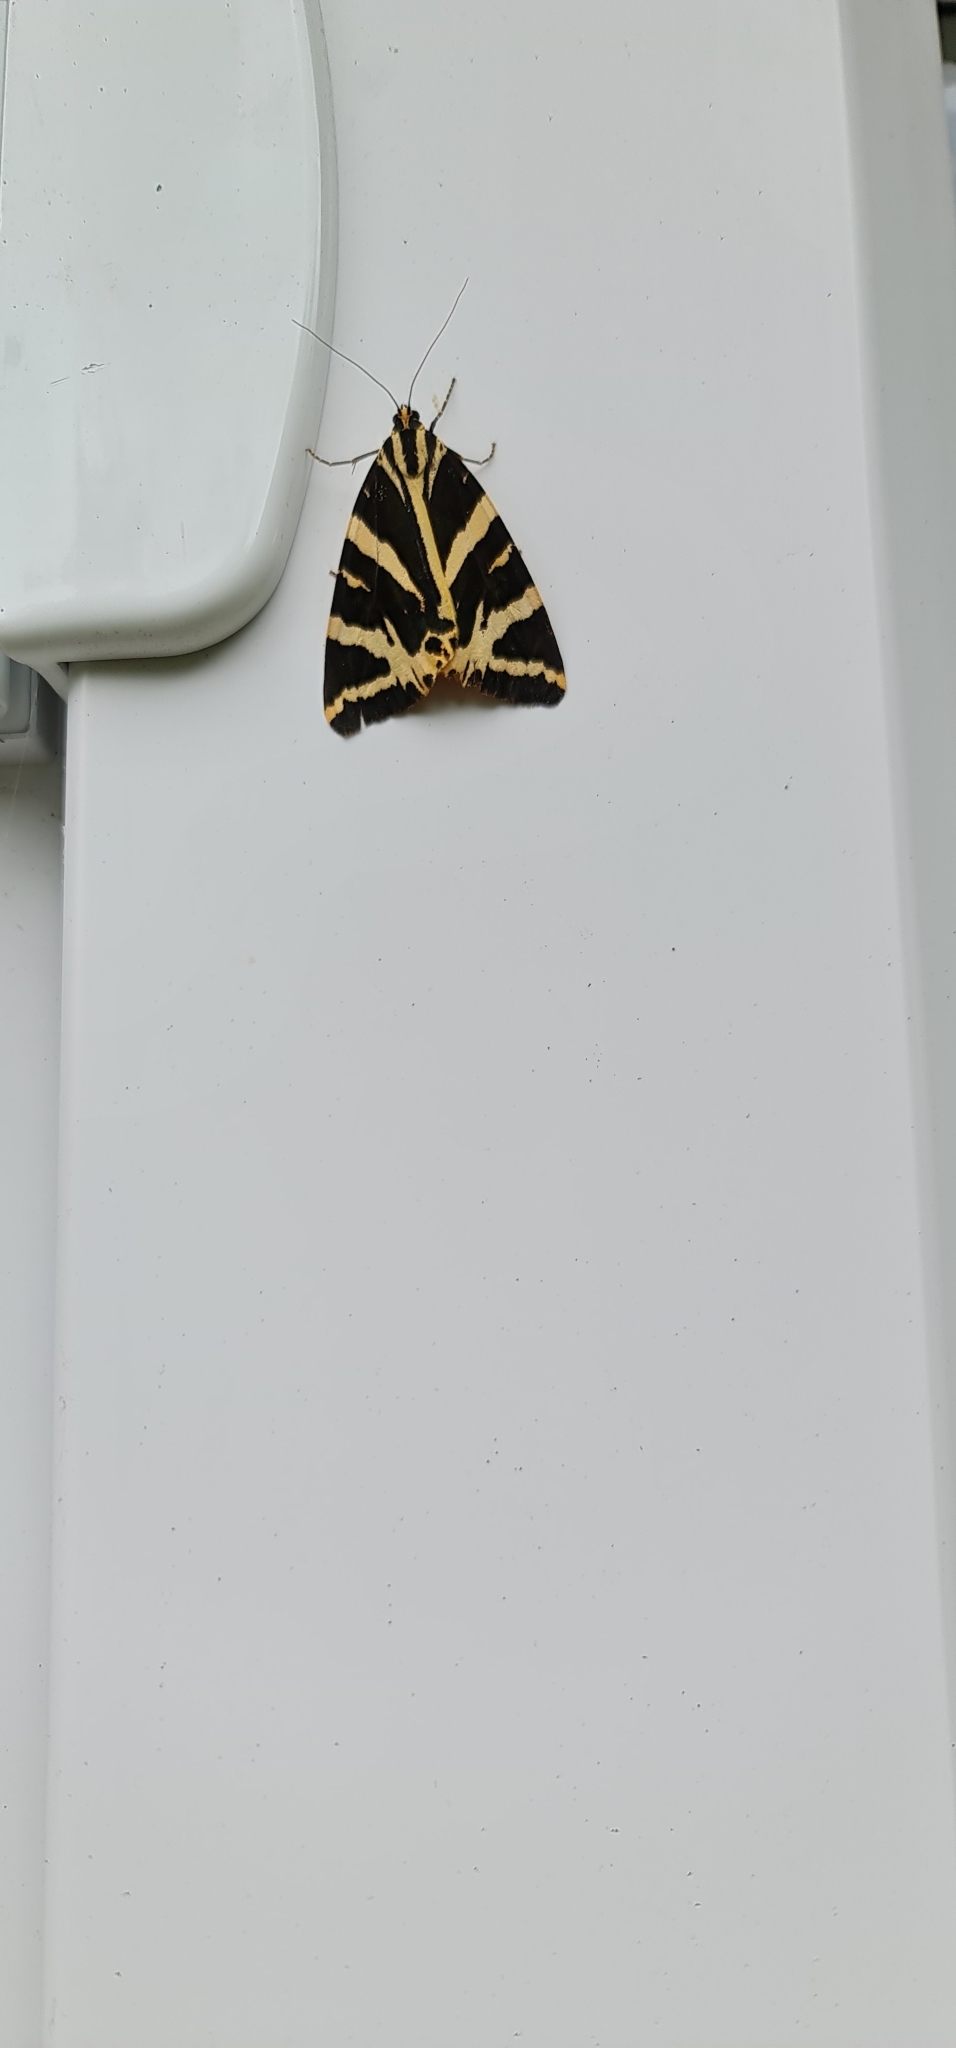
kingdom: Animalia
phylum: Arthropoda
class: Insecta
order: Lepidoptera
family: Erebidae
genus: Euplagia
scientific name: Euplagia quadripunctaria
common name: Jersey tiger
